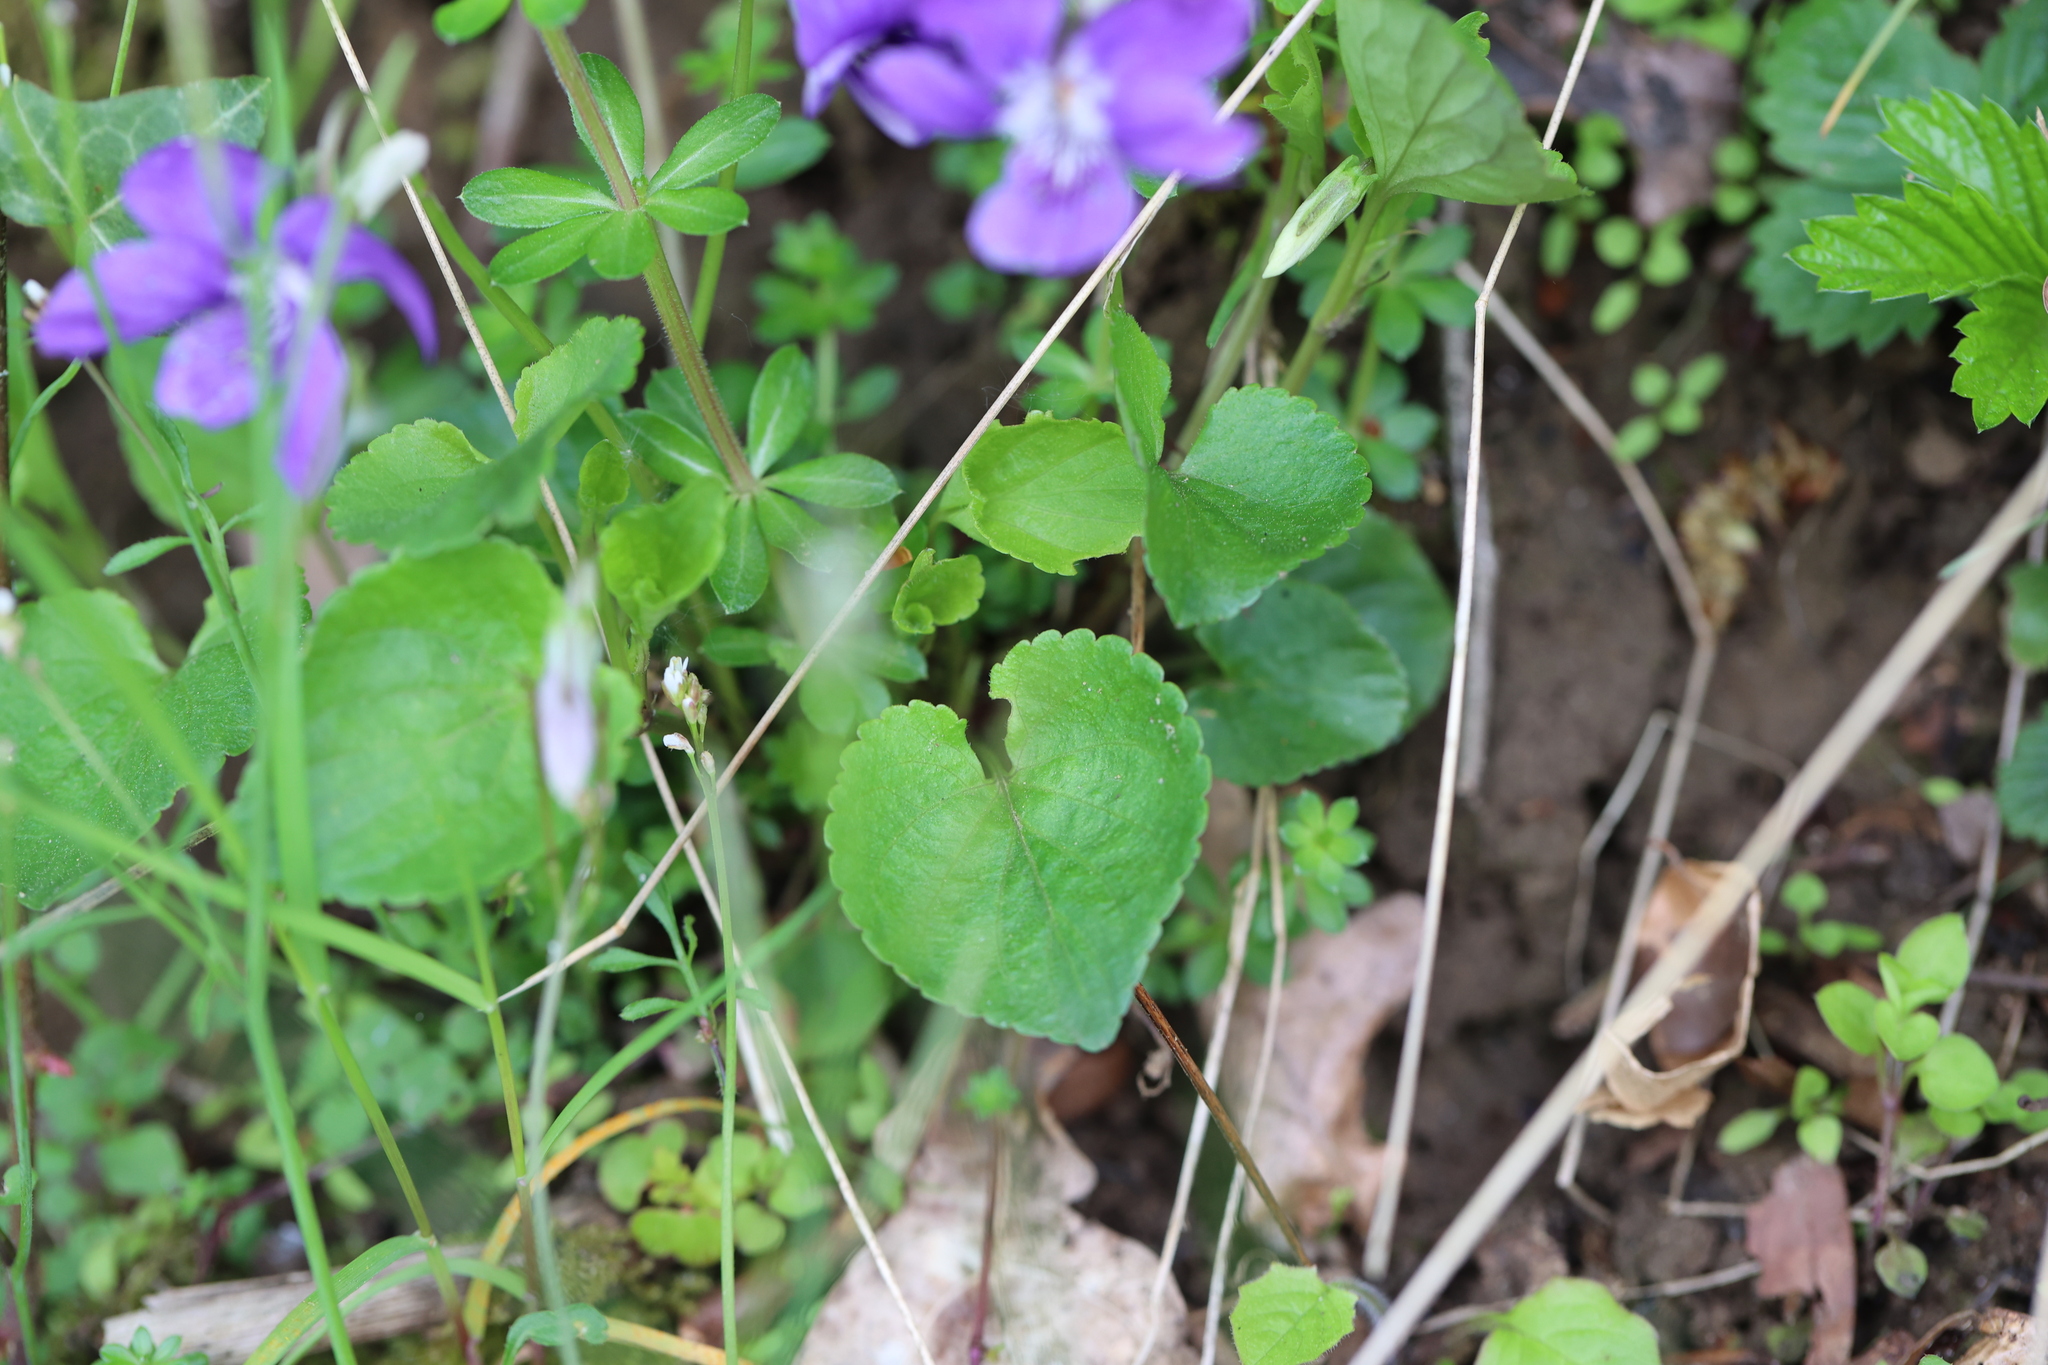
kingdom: Plantae
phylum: Tracheophyta
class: Magnoliopsida
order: Malpighiales
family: Violaceae
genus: Viola
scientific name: Viola riviniana
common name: Common dog-violet
